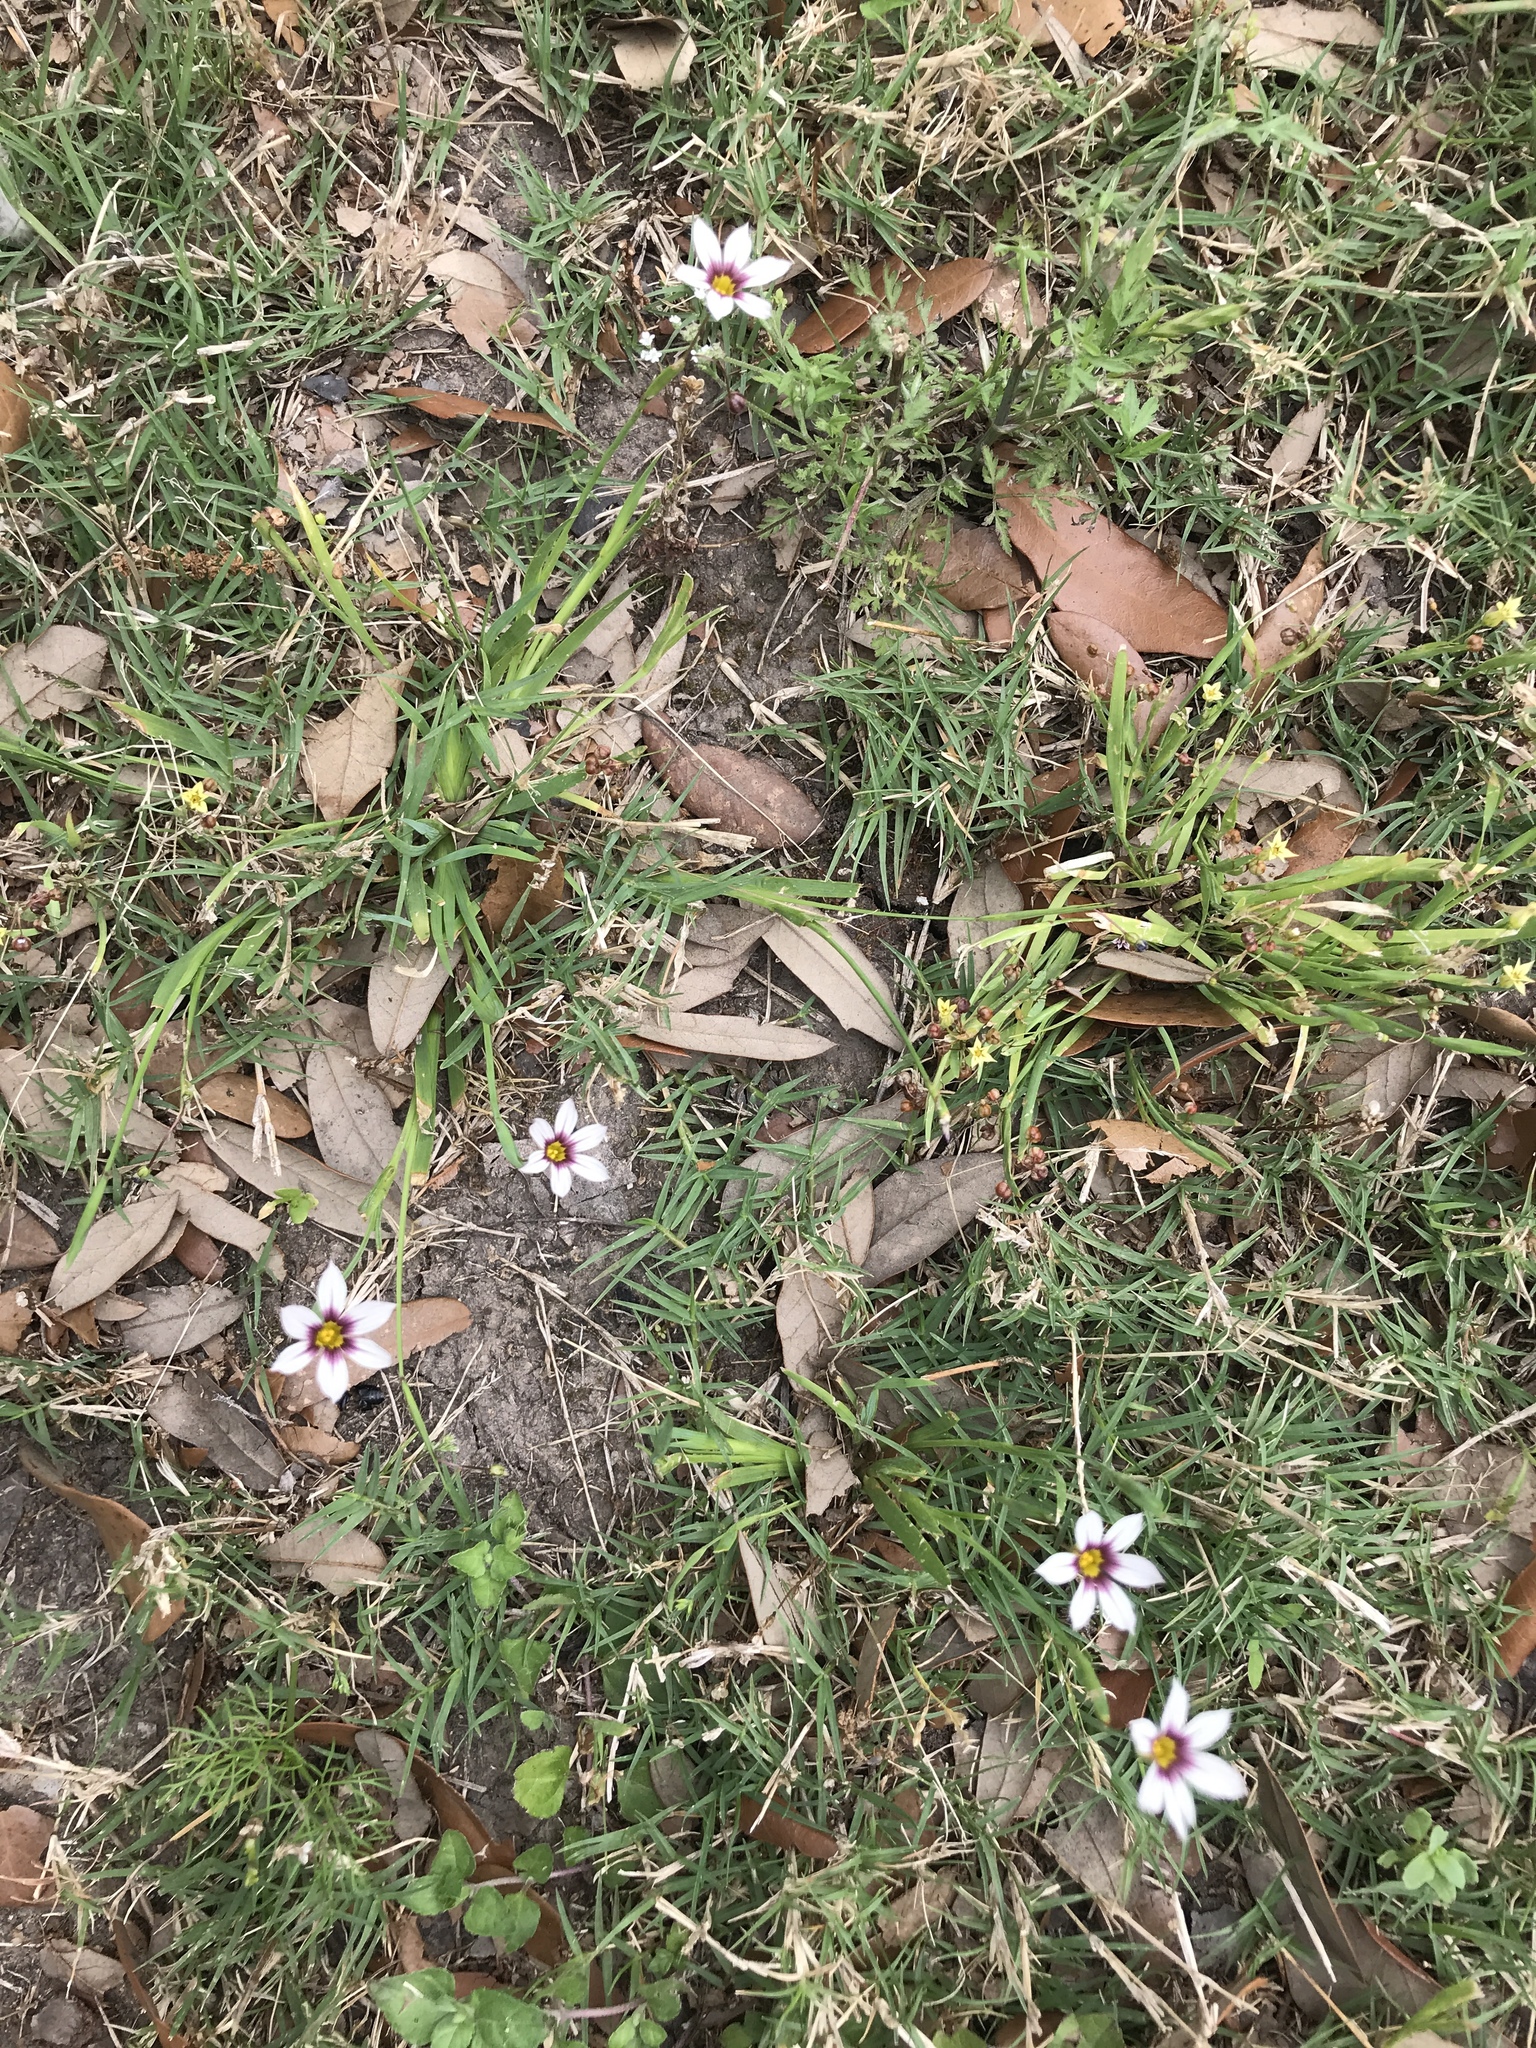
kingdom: Plantae
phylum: Tracheophyta
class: Liliopsida
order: Asparagales
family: Iridaceae
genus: Sisyrinchium
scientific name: Sisyrinchium micranthum
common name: Bermuda pigroot
